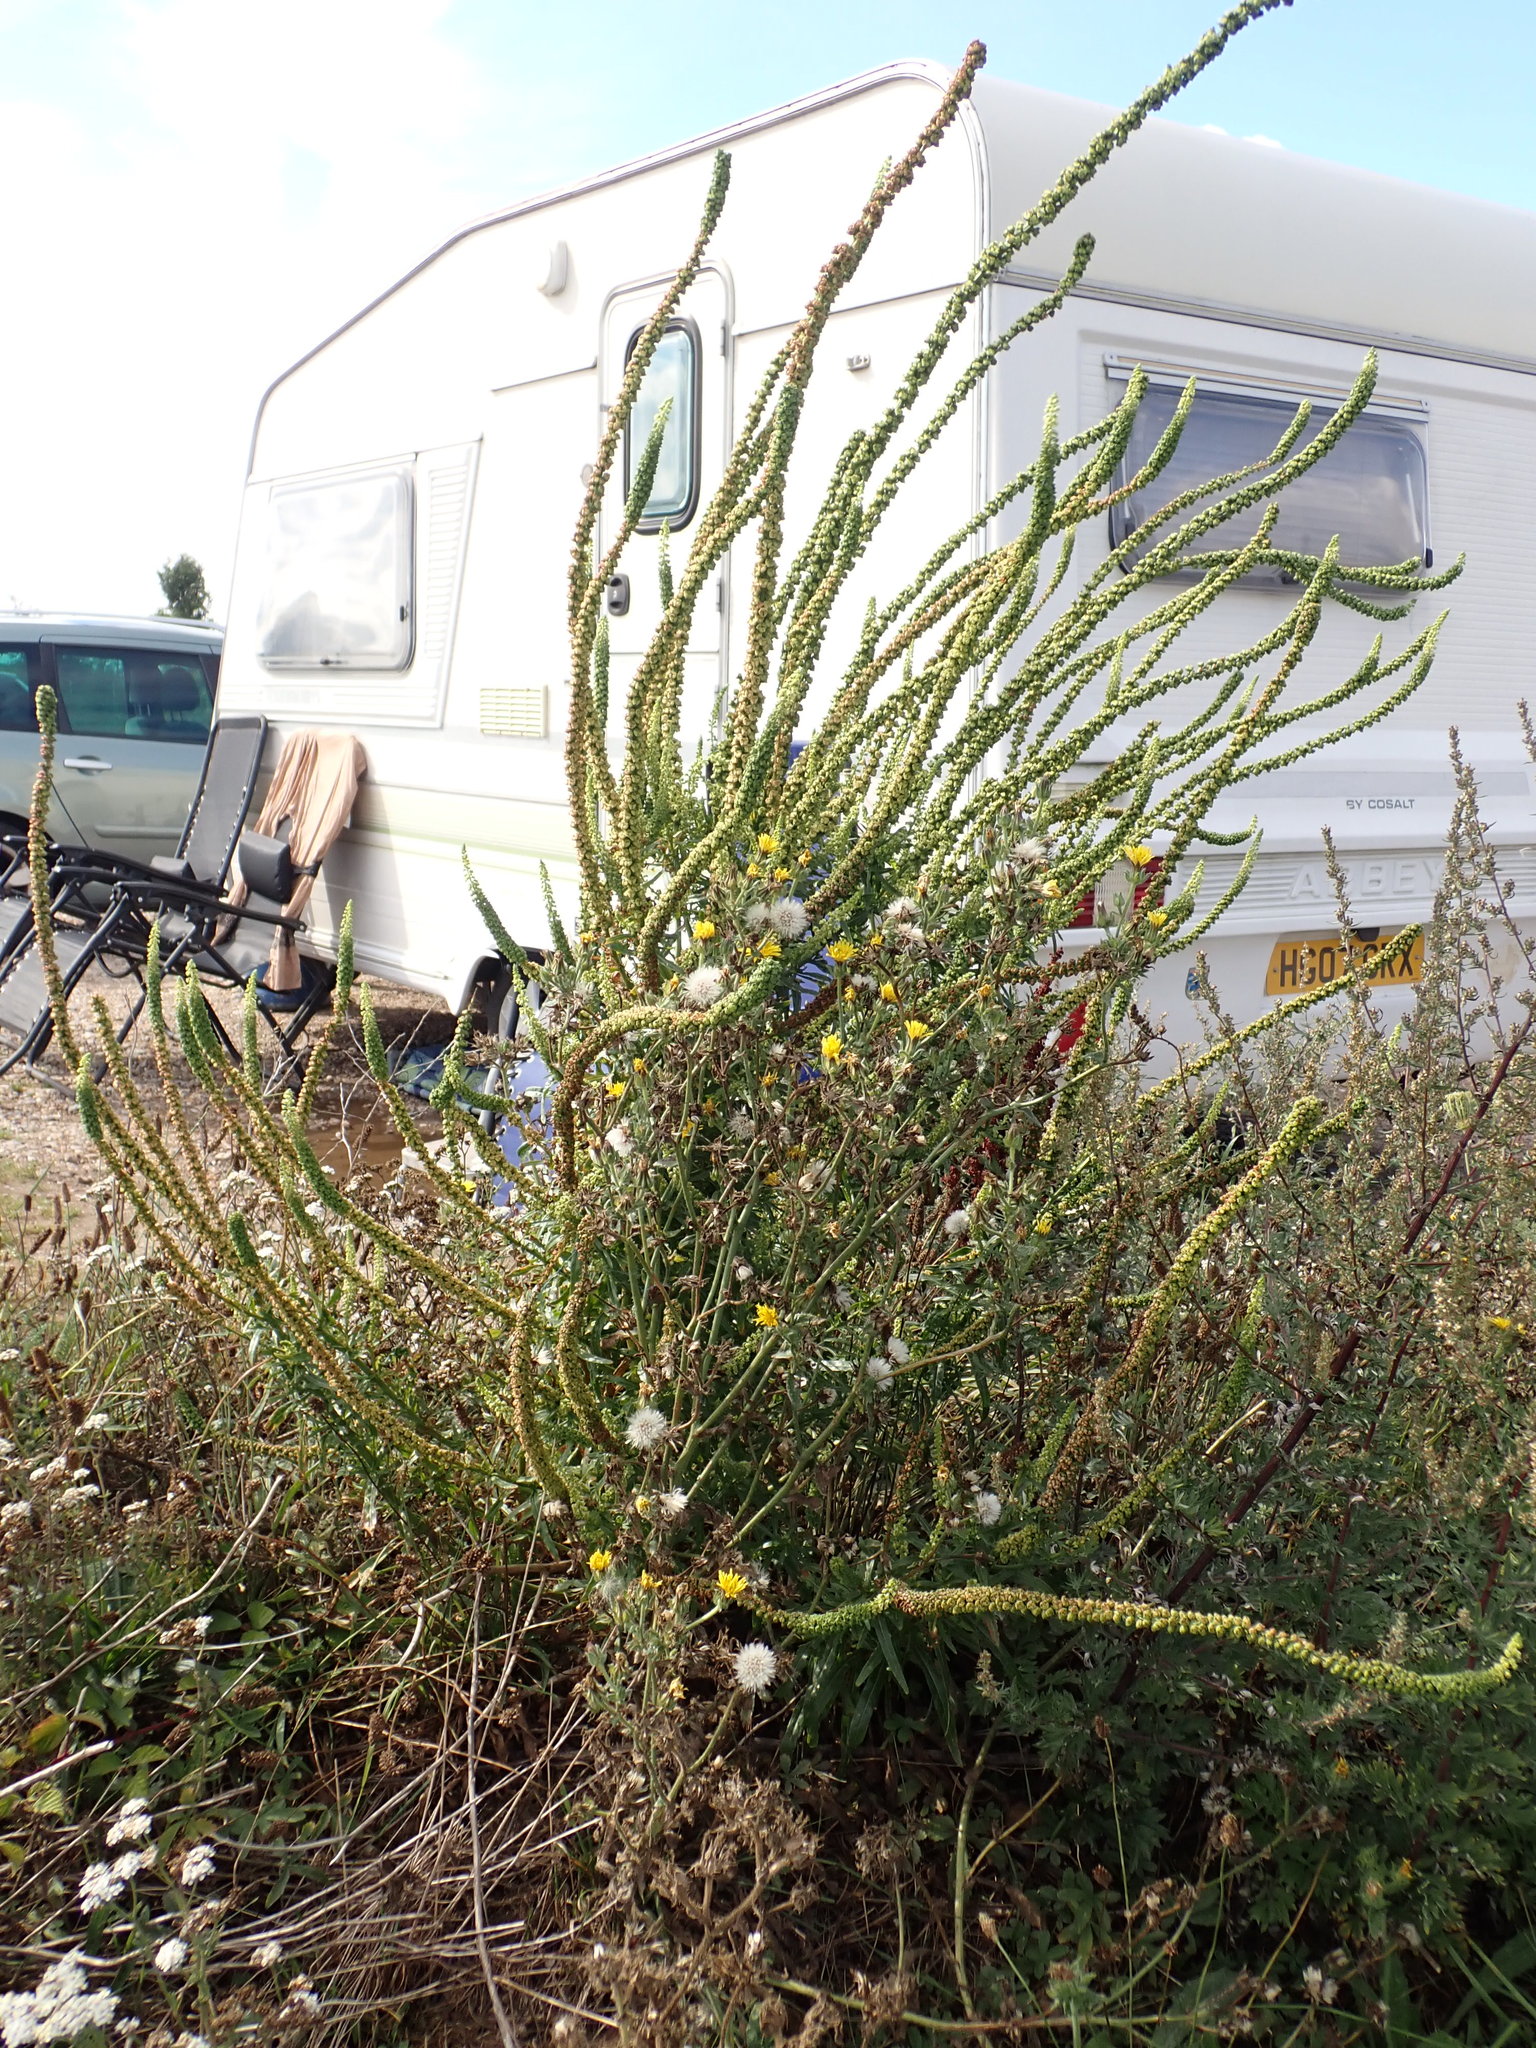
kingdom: Plantae
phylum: Tracheophyta
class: Magnoliopsida
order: Brassicales
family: Resedaceae
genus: Reseda
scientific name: Reseda luteola
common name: Weld
